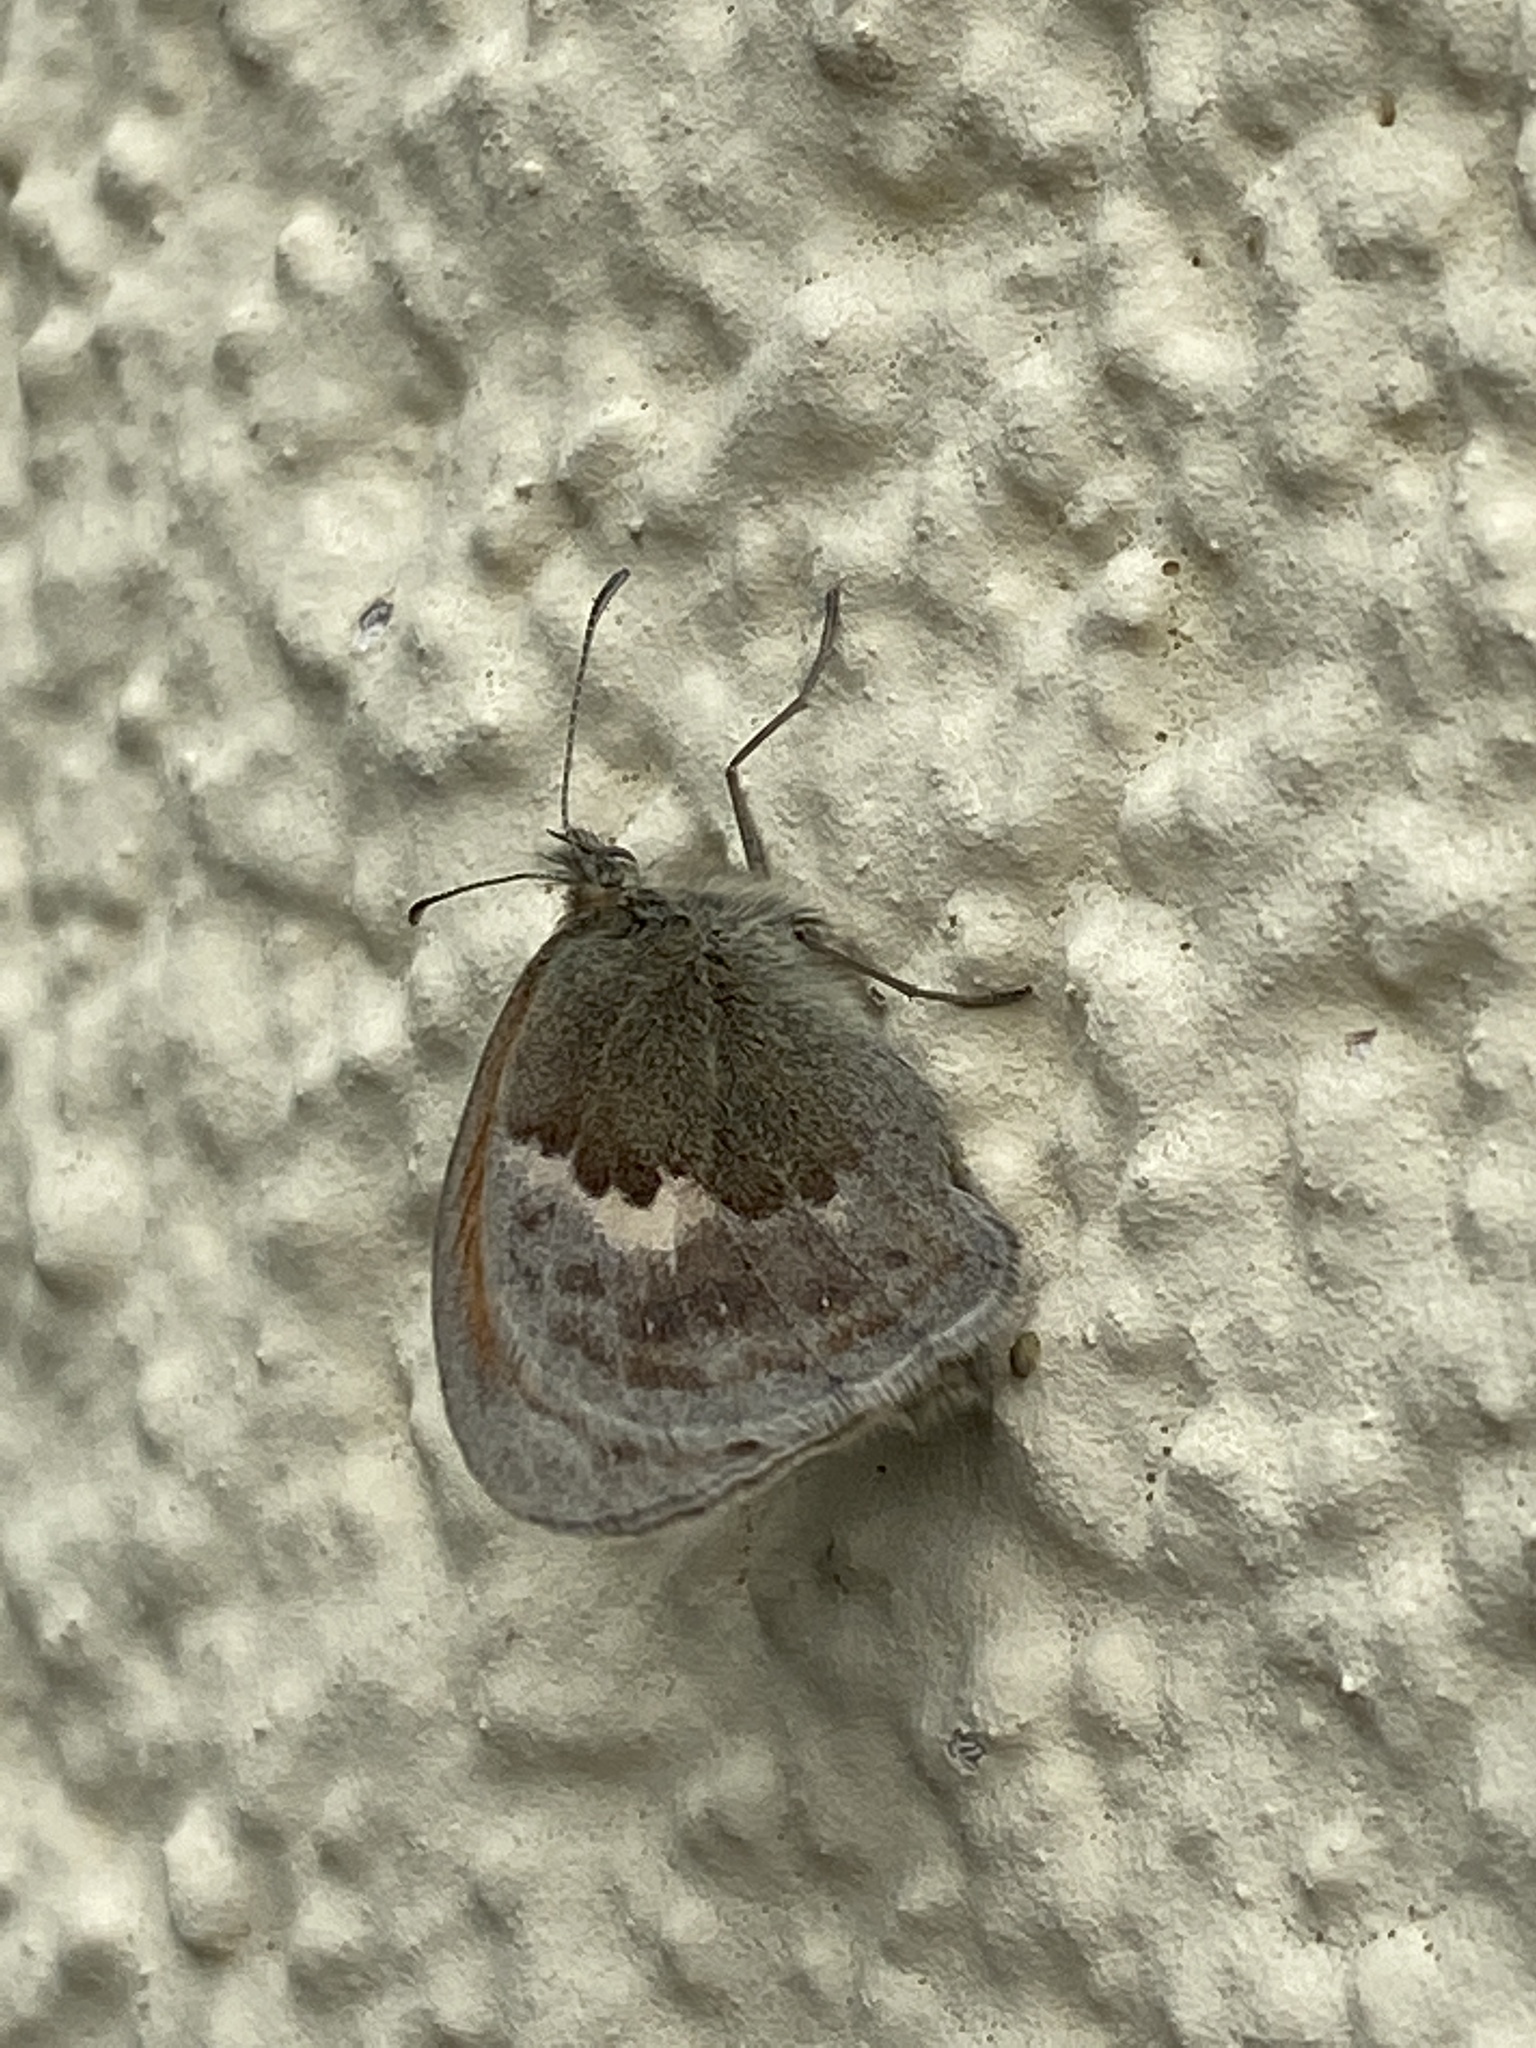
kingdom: Animalia
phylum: Arthropoda
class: Insecta
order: Lepidoptera
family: Nymphalidae
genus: Coenonympha
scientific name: Coenonympha pamphilus
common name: Small heath
